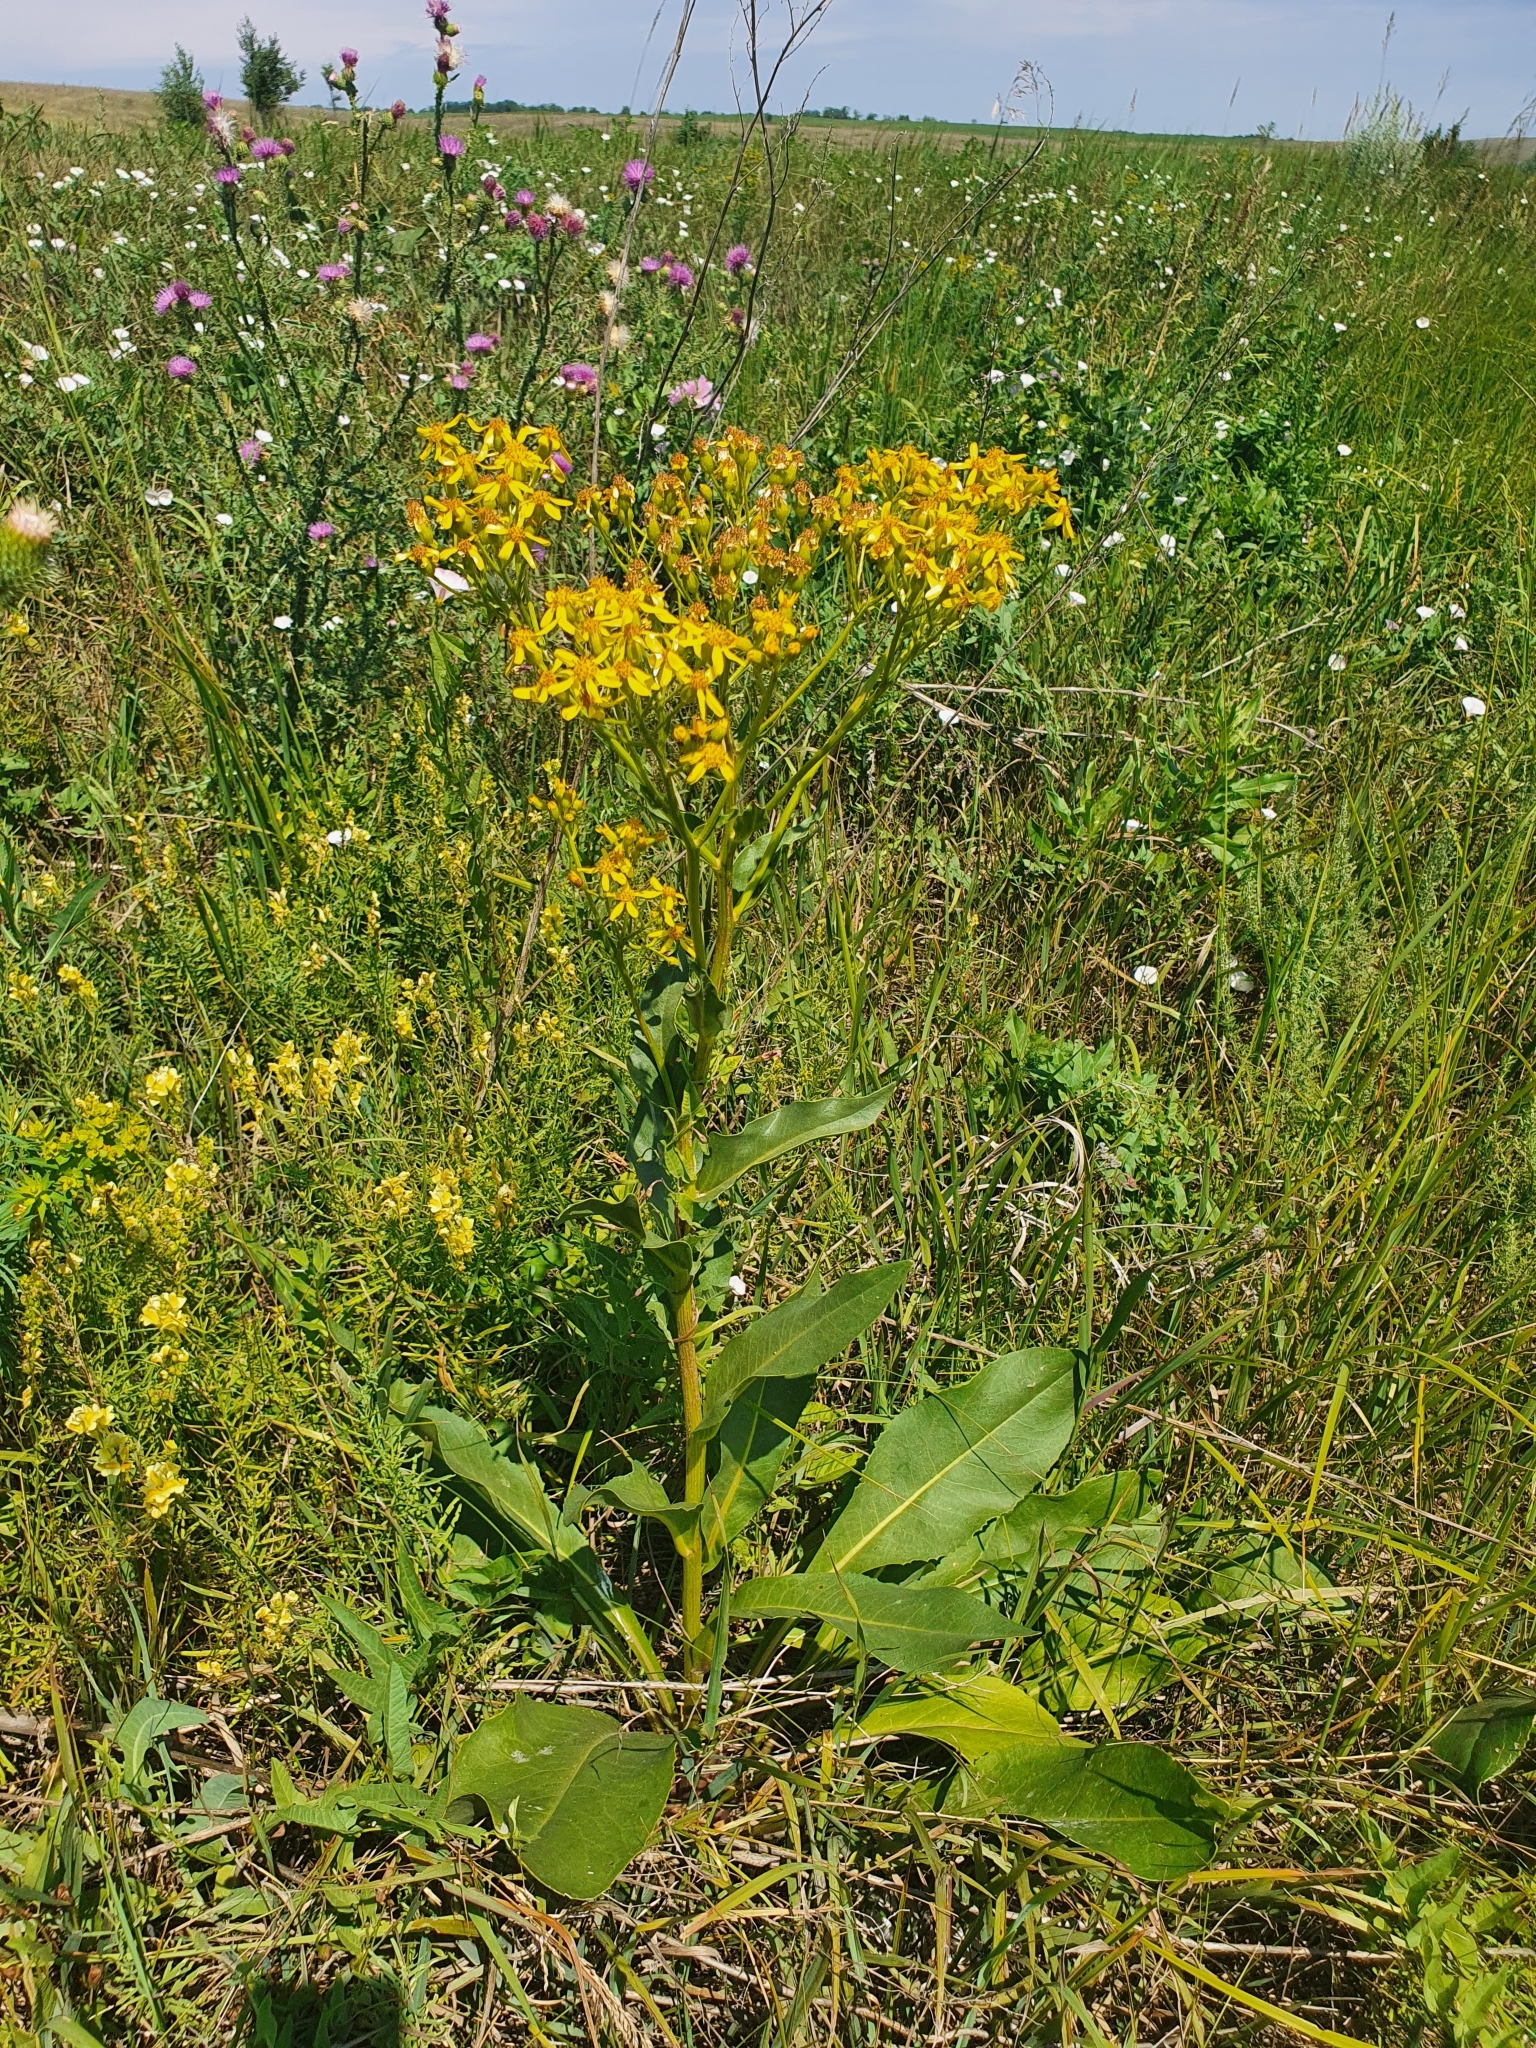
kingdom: Plantae
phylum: Tracheophyta
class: Magnoliopsida
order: Asterales
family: Asteraceae
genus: Senecio
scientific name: Senecio doria
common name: Golden ragwort
